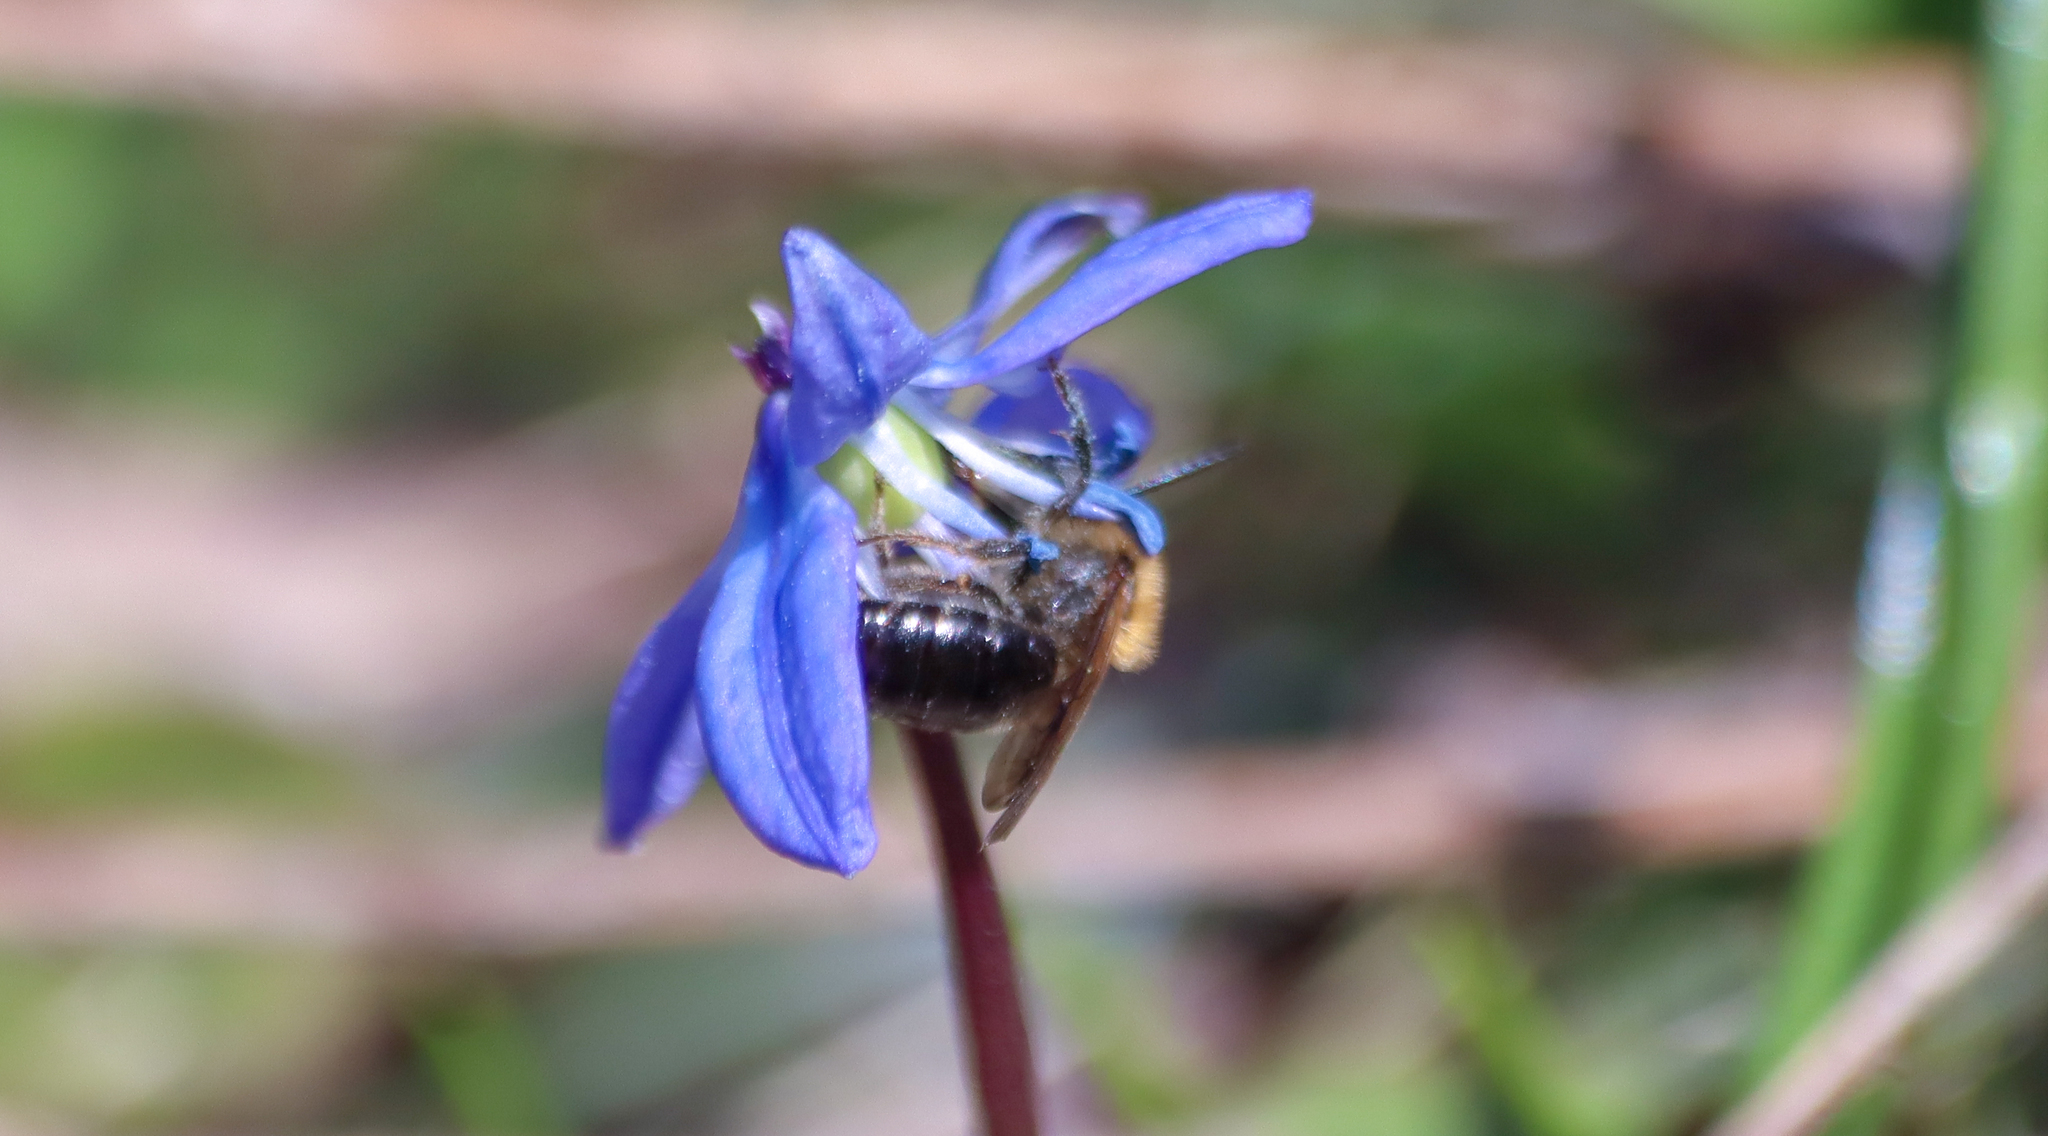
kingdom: Animalia
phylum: Arthropoda
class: Insecta
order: Hymenoptera
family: Andrenidae
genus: Andrena
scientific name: Andrena dunningi
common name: Dunning's miner
